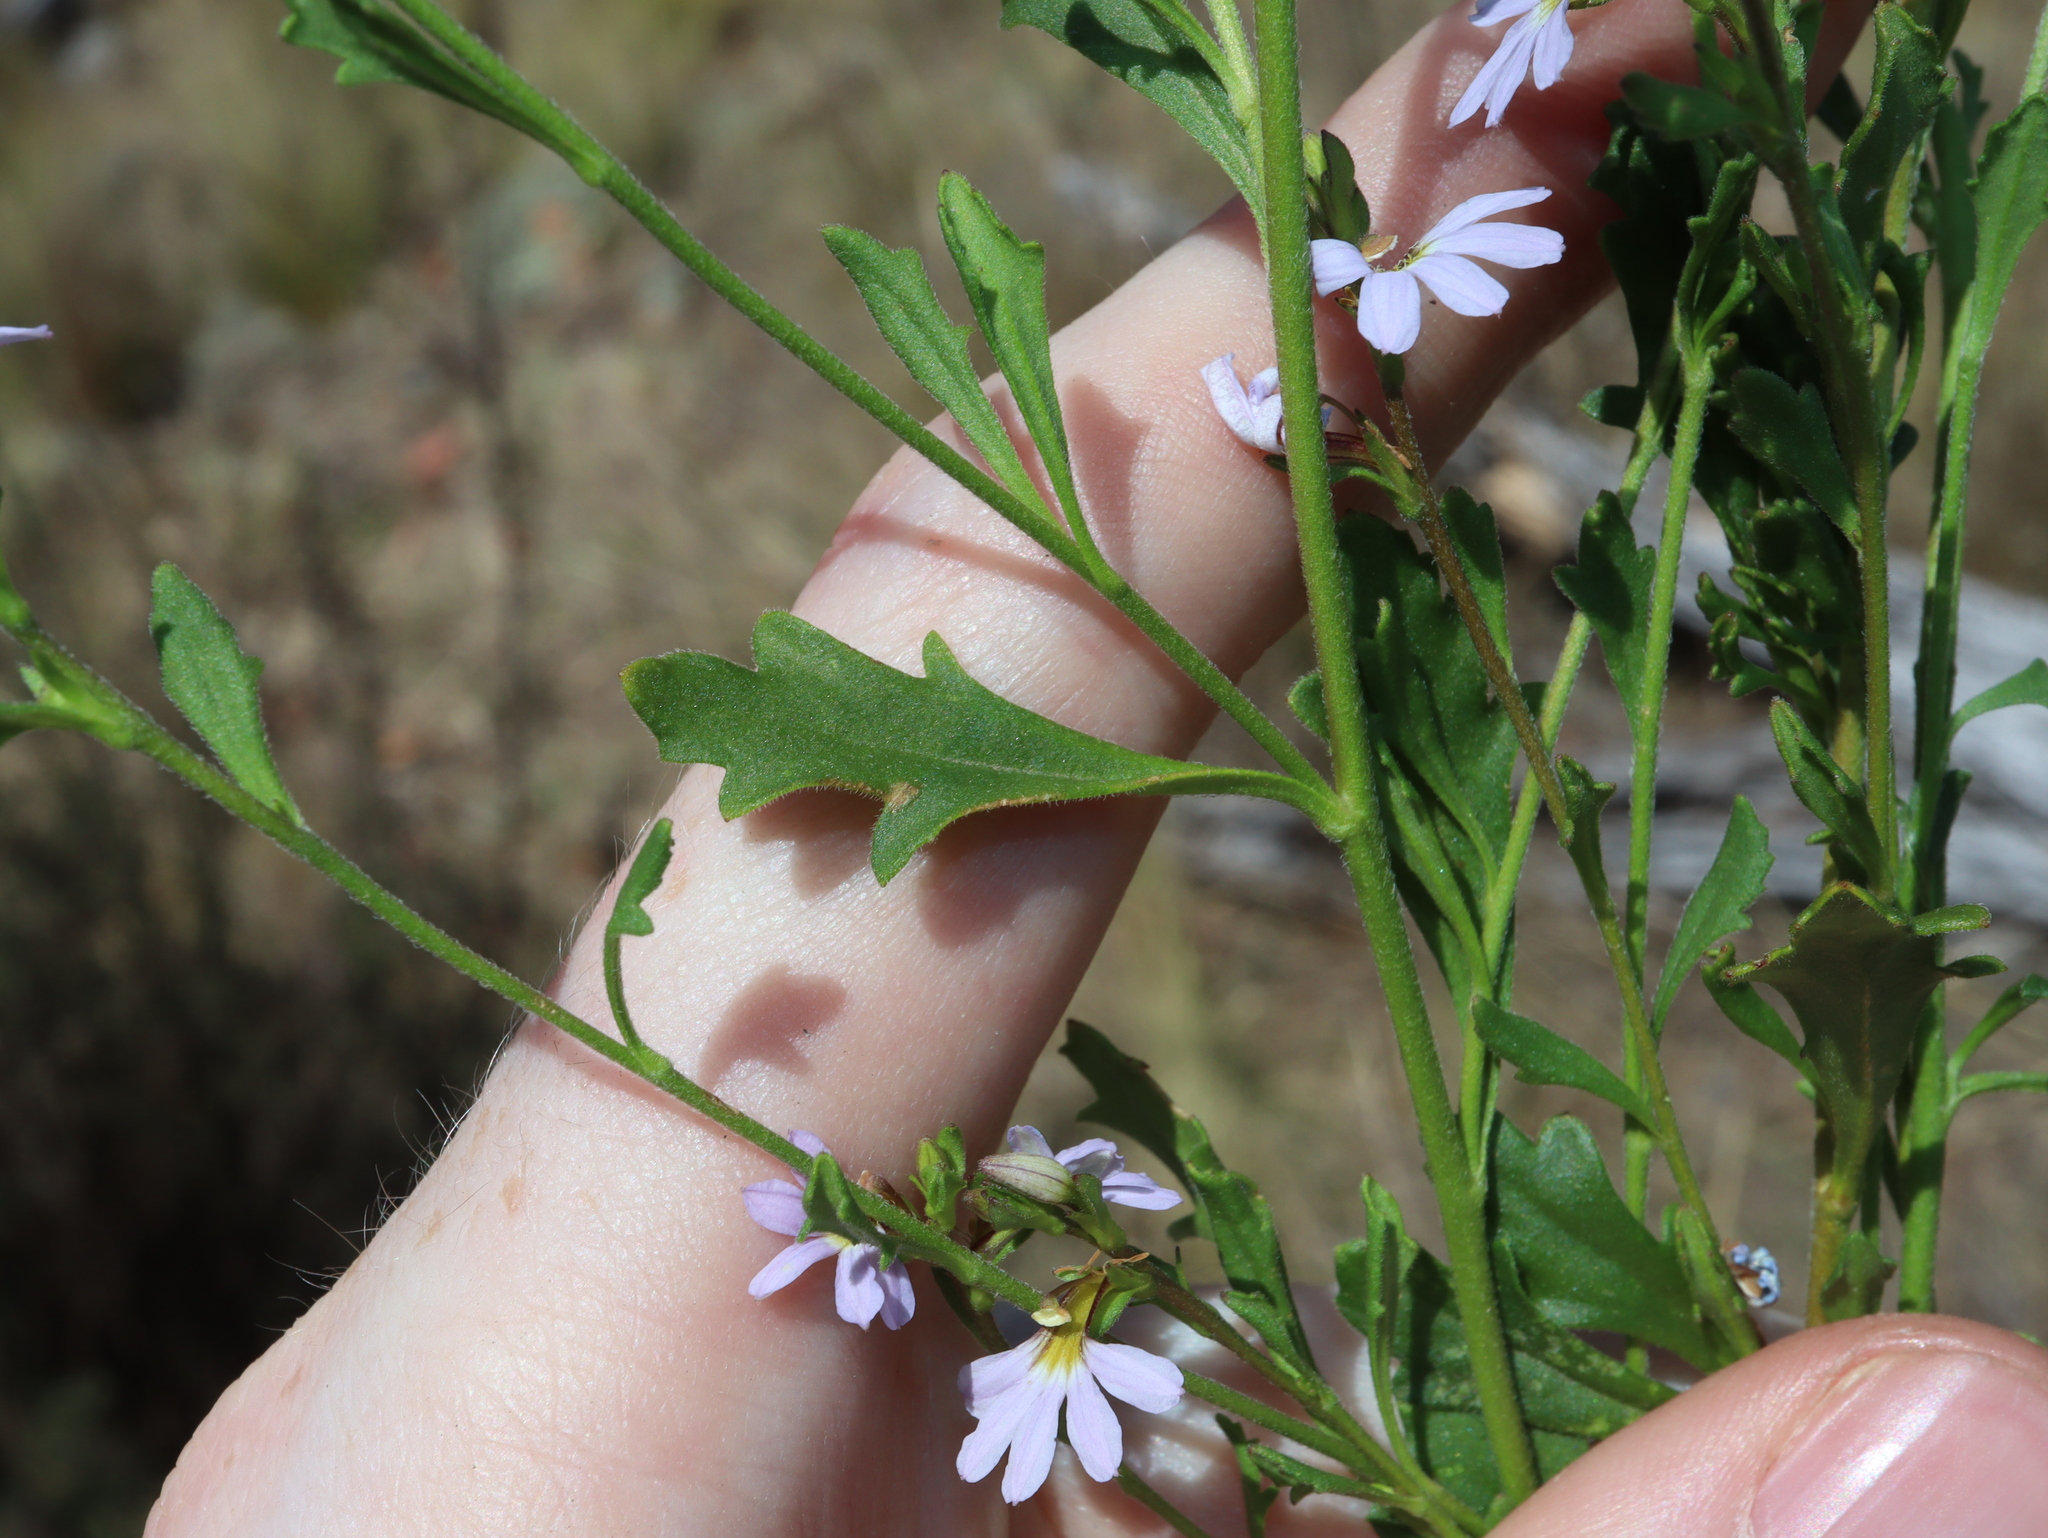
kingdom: Plantae
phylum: Tracheophyta
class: Magnoliopsida
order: Asterales
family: Goodeniaceae
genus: Scaevola
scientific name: Scaevola albida
